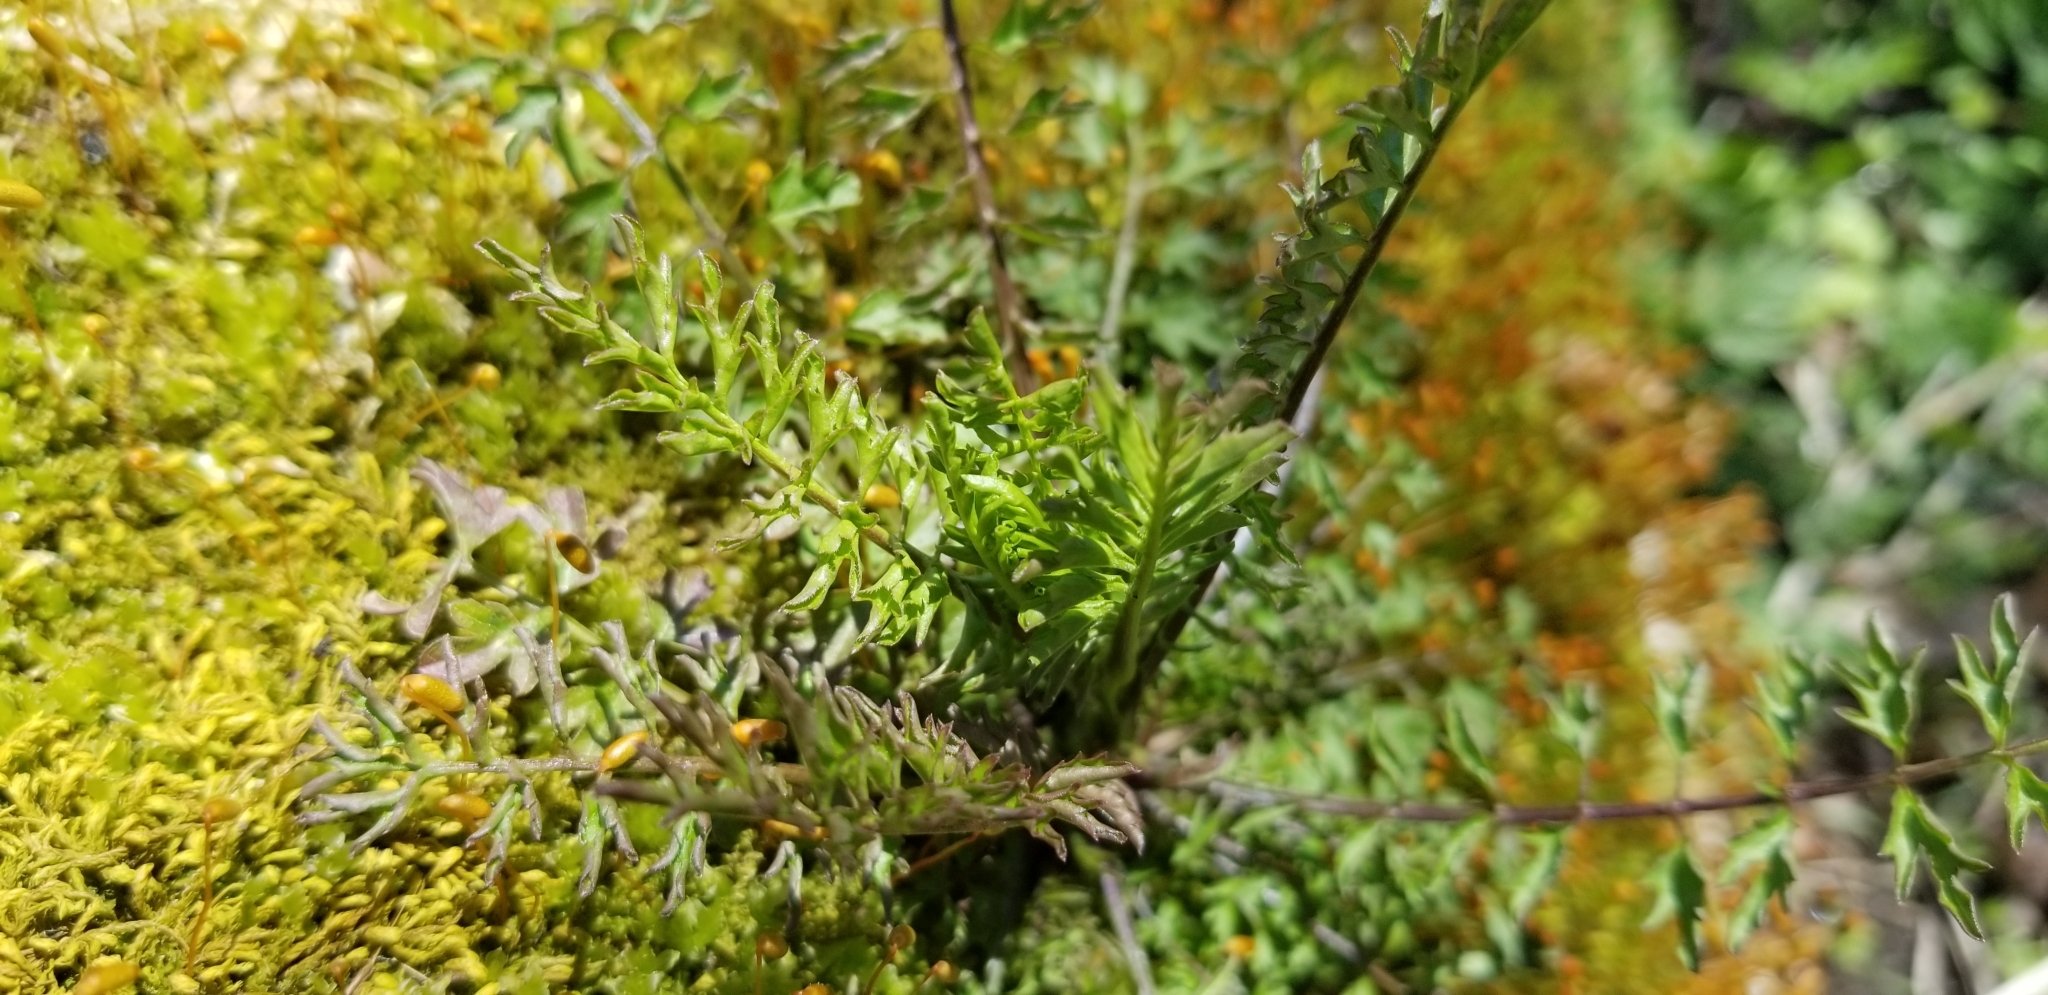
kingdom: Plantae
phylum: Tracheophyta
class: Magnoliopsida
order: Brassicales
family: Brassicaceae
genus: Cardamine
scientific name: Cardamine impatiens
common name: Narrow-leaved bitter-cress
